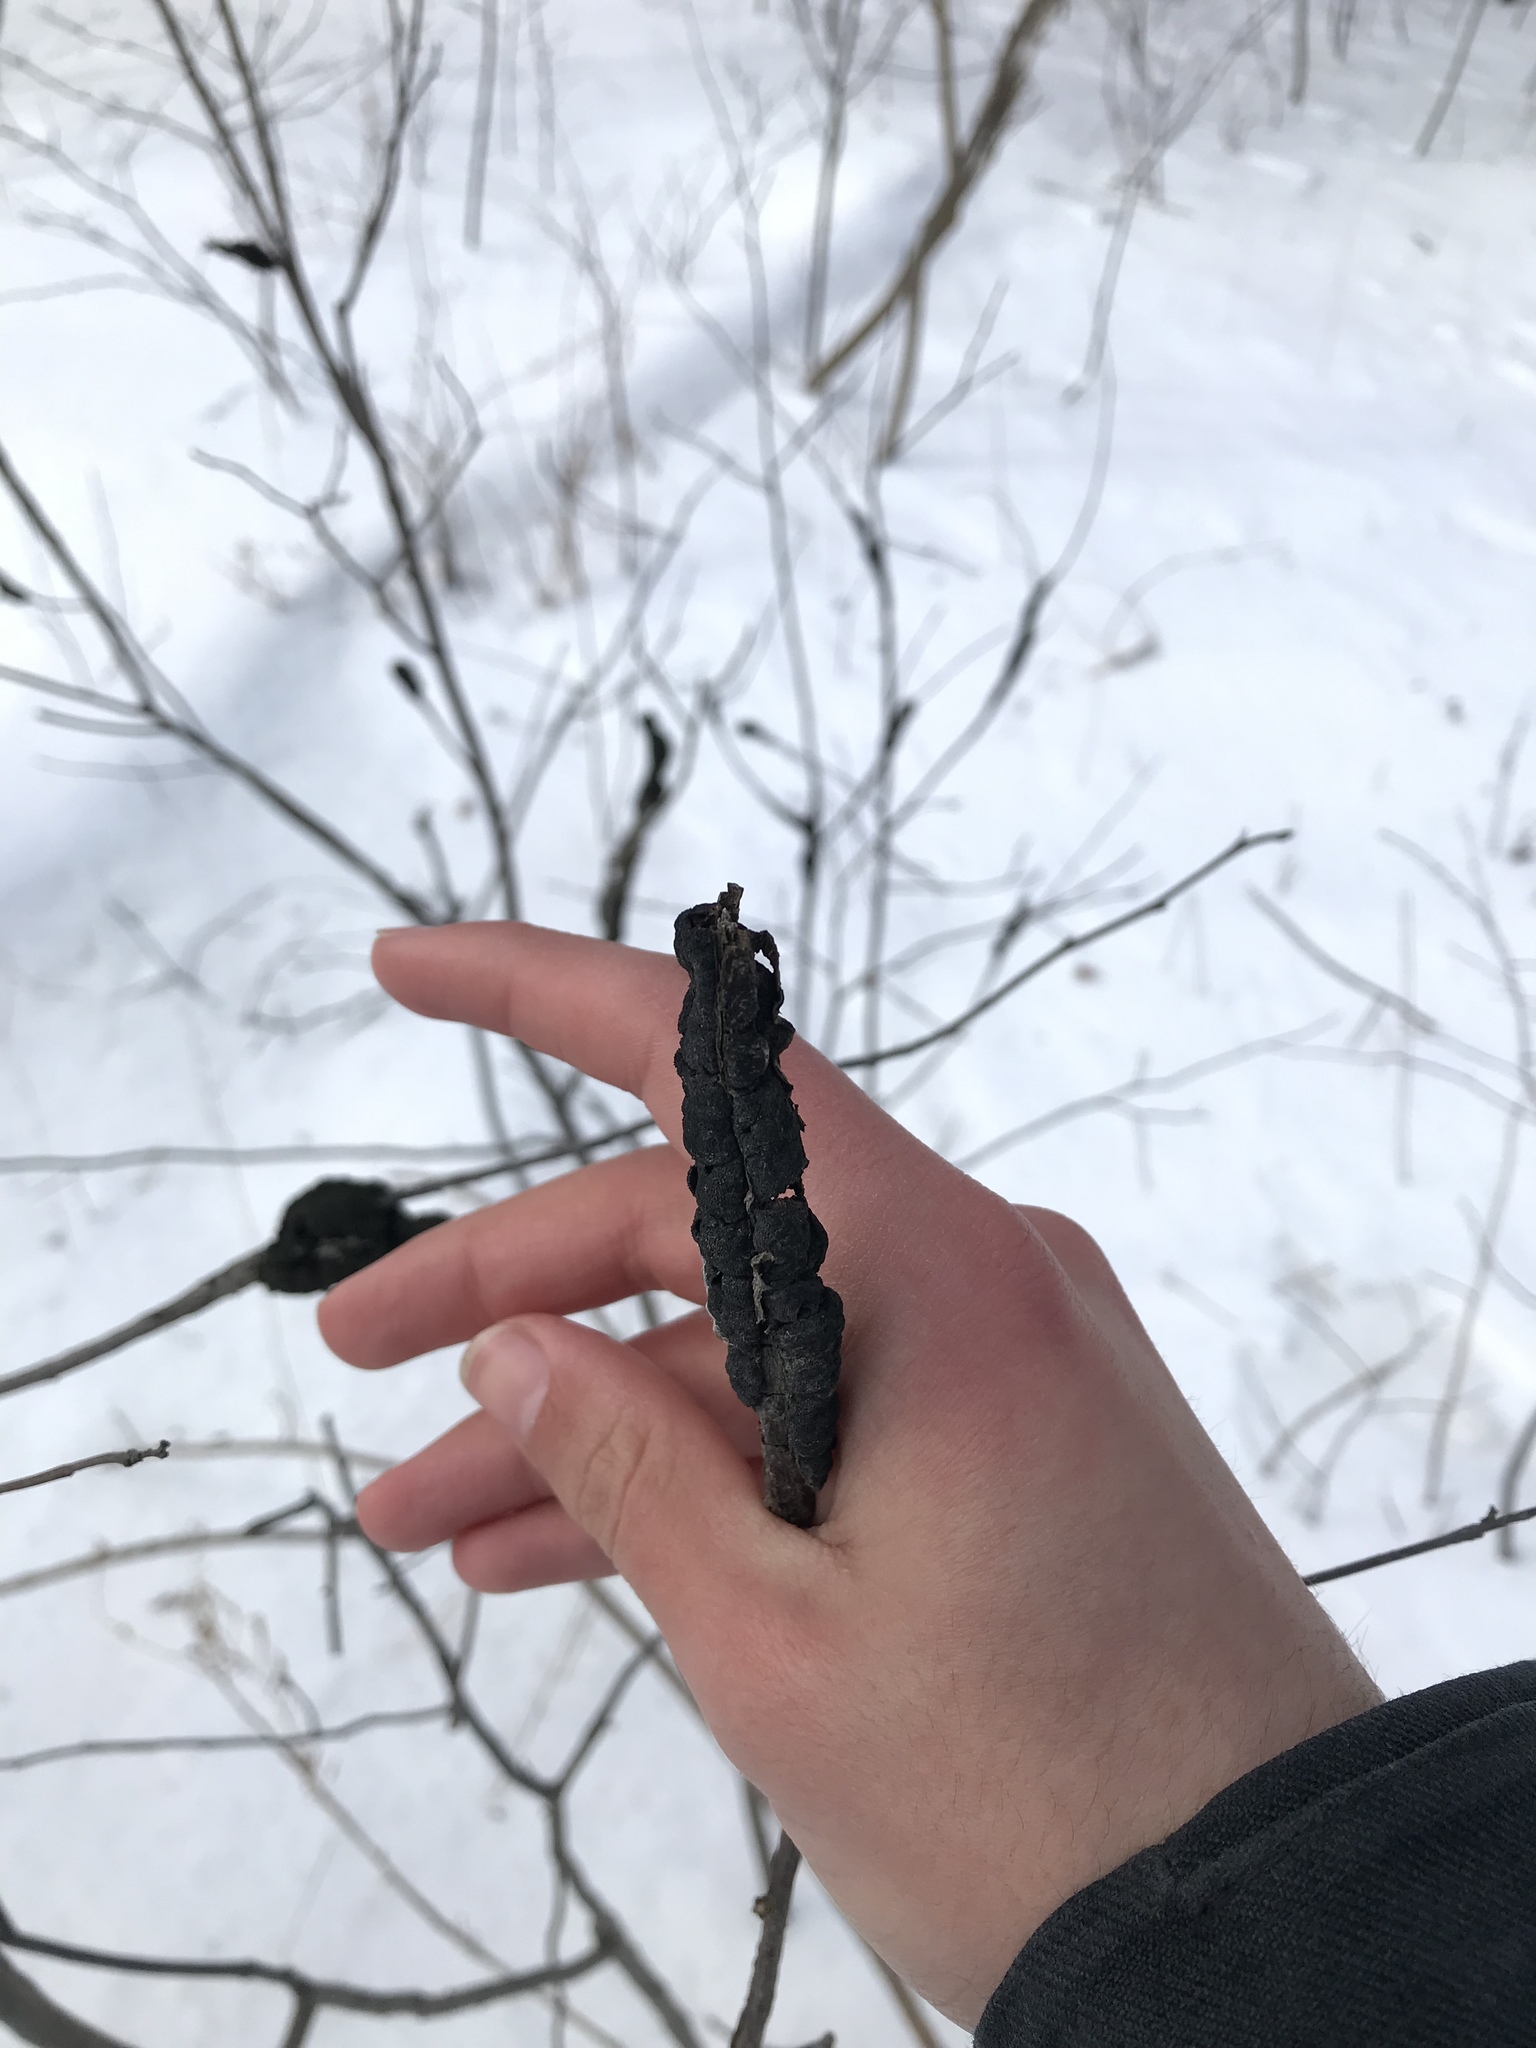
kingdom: Fungi
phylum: Ascomycota
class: Dothideomycetes
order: Venturiales
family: Venturiaceae
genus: Apiosporina
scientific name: Apiosporina morbosa
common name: Black knot
